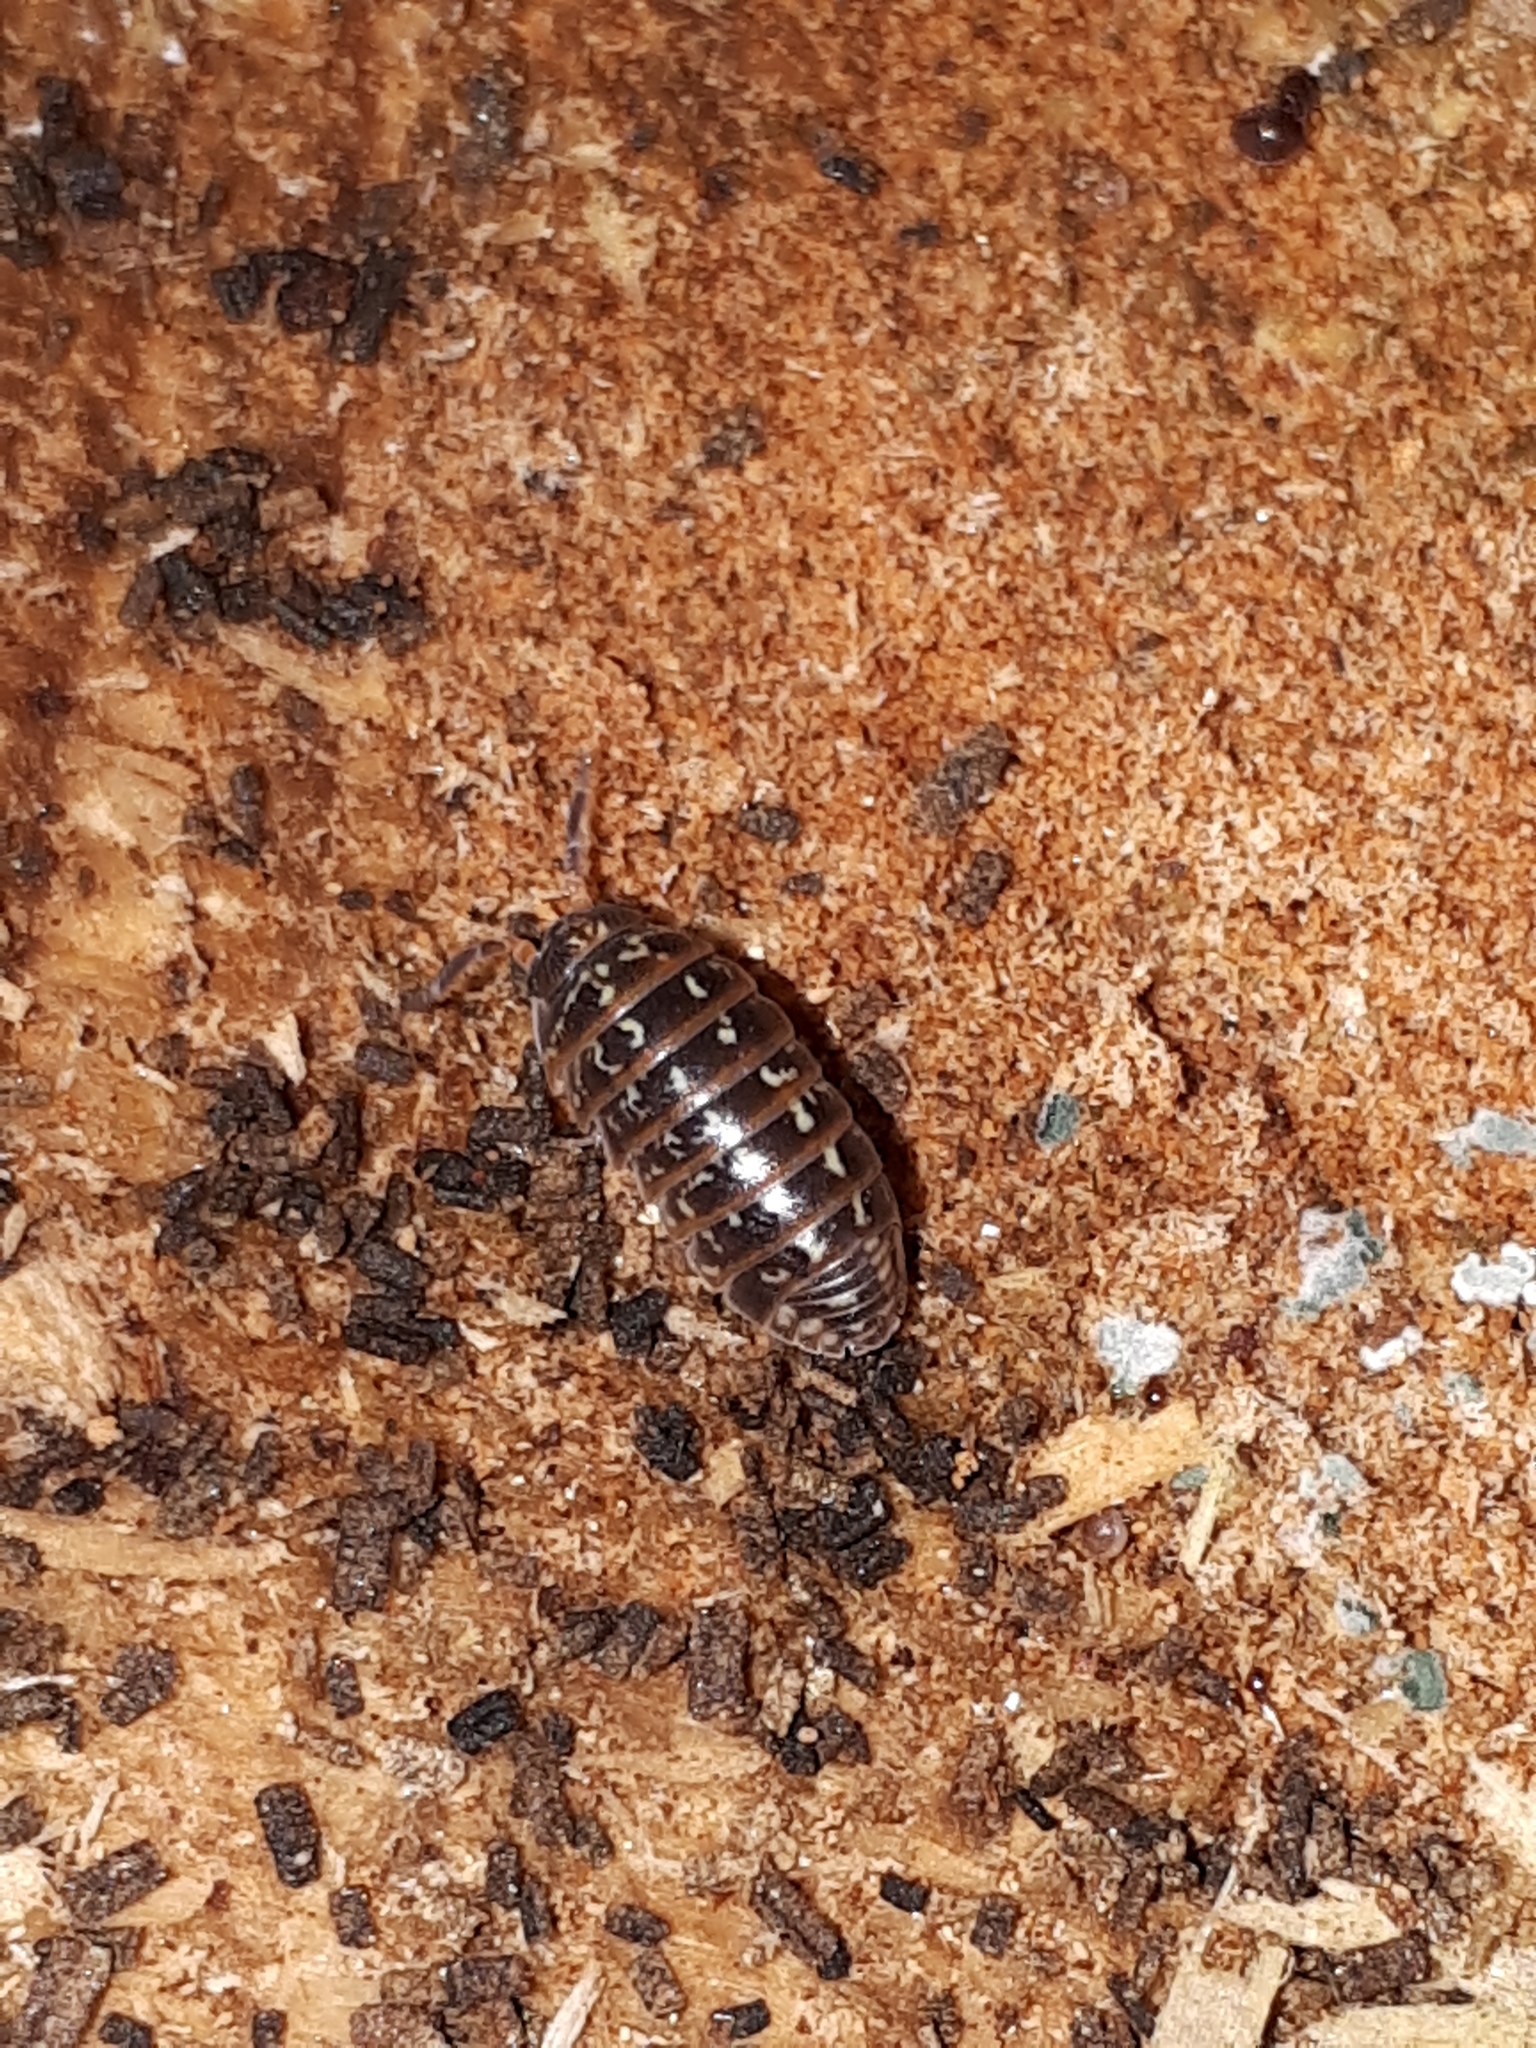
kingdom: Animalia
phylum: Arthropoda
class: Malacostraca
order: Isopoda
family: Armadillidiidae
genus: Armadillidium
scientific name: Armadillidium pulchellum
